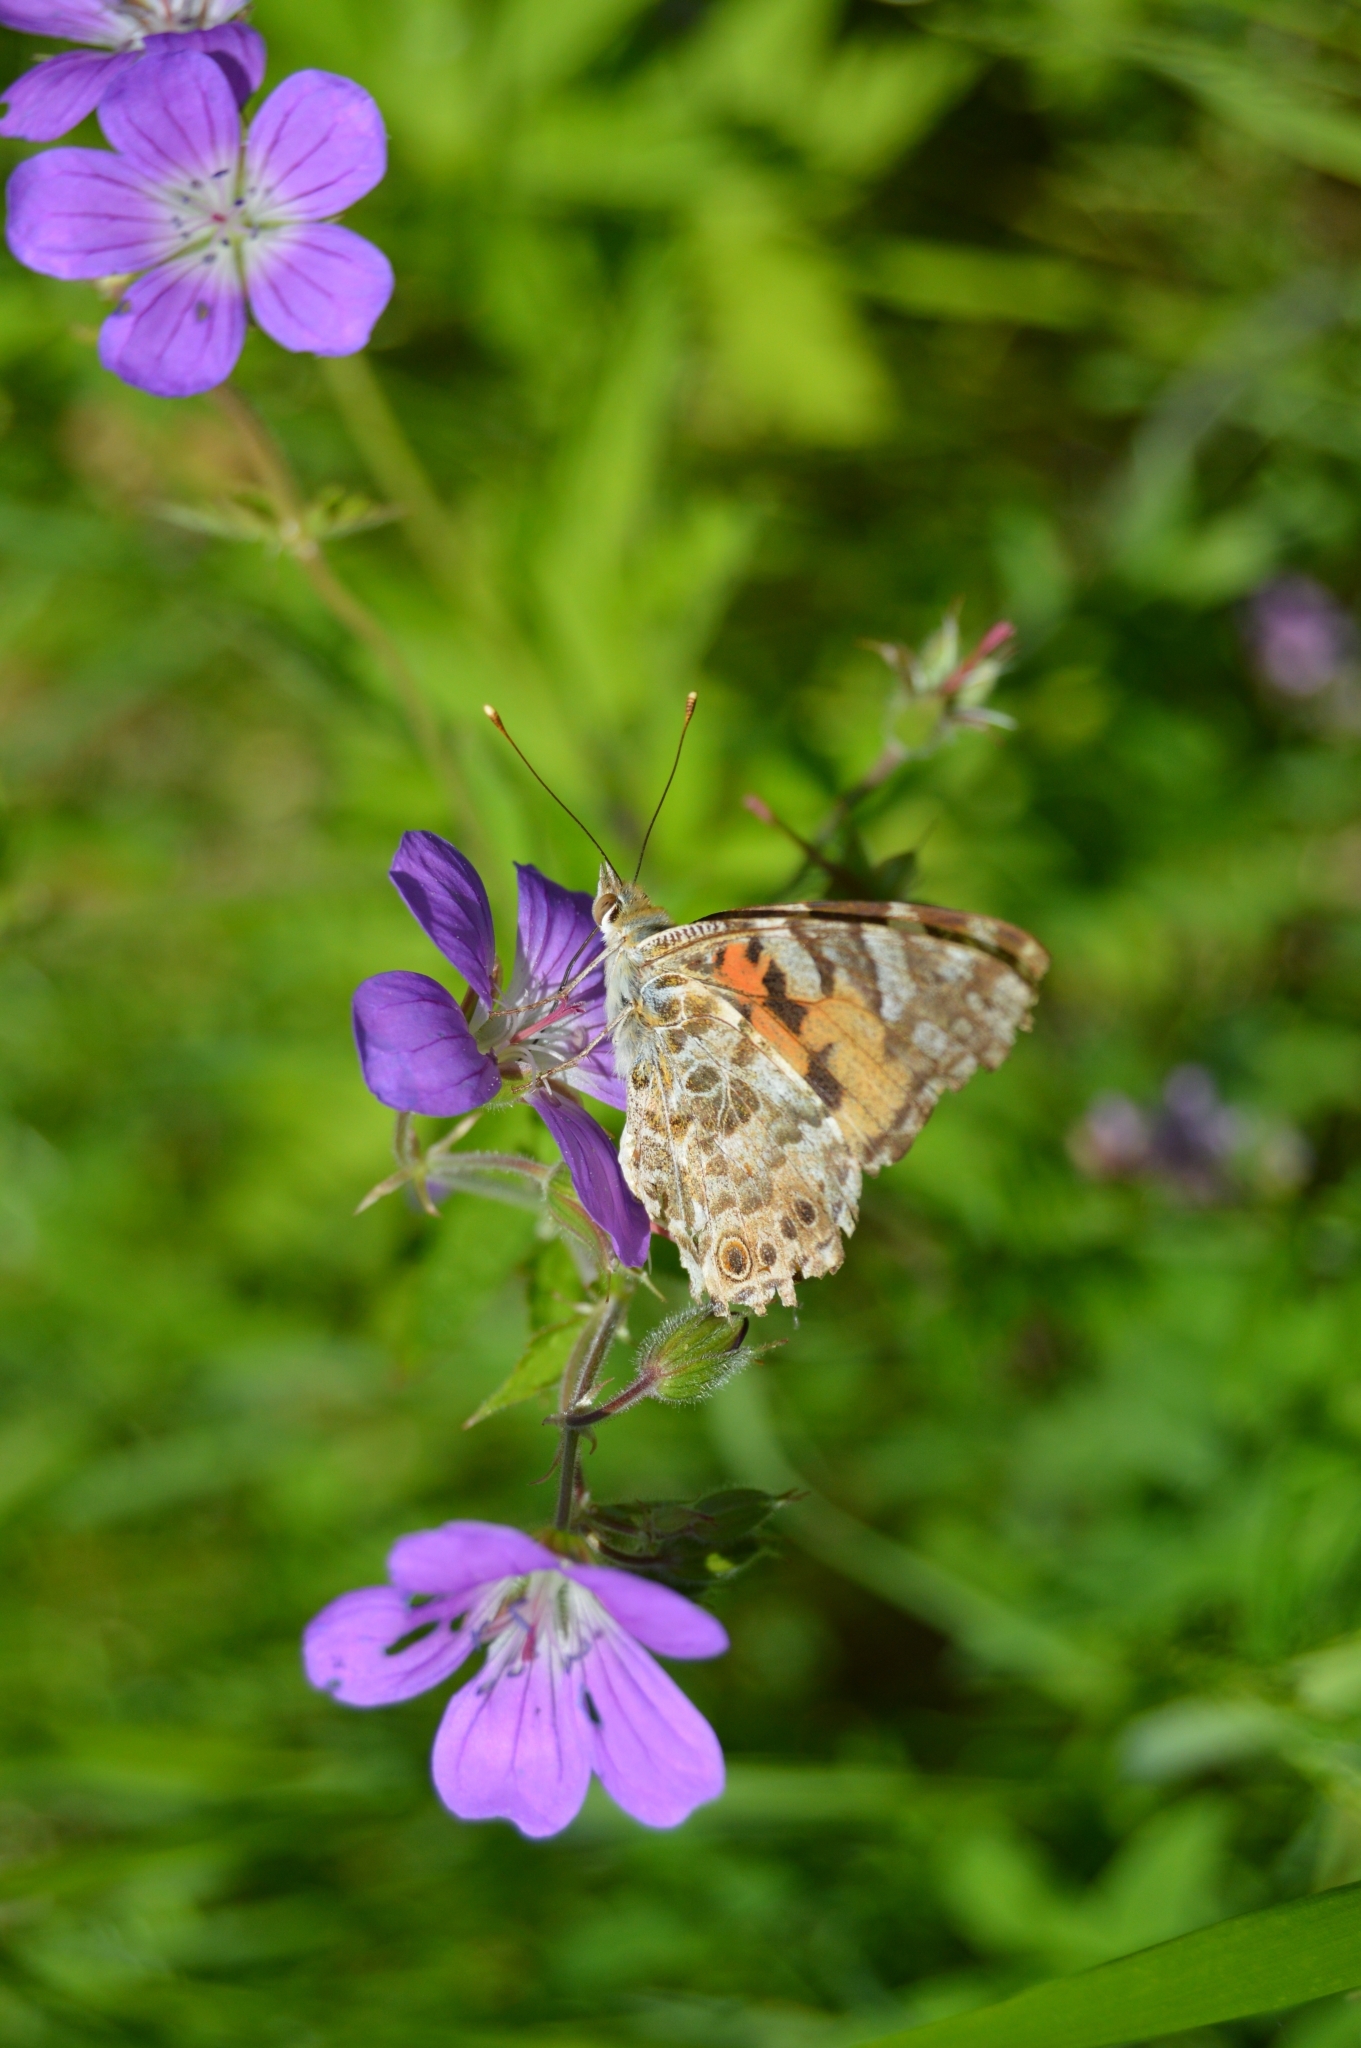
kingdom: Animalia
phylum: Arthropoda
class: Insecta
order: Lepidoptera
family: Nymphalidae
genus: Vanessa
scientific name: Vanessa cardui
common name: Painted lady
